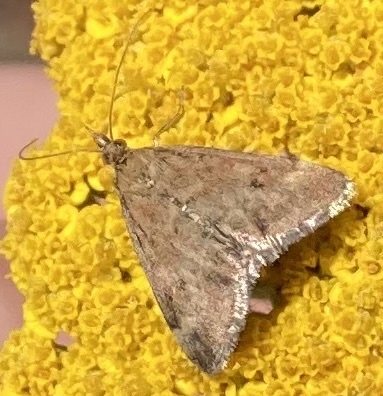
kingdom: Animalia
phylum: Arthropoda
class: Insecta
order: Lepidoptera
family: Crambidae
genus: Pyrausta
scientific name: Pyrausta despicata
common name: Straw-barred pearl
